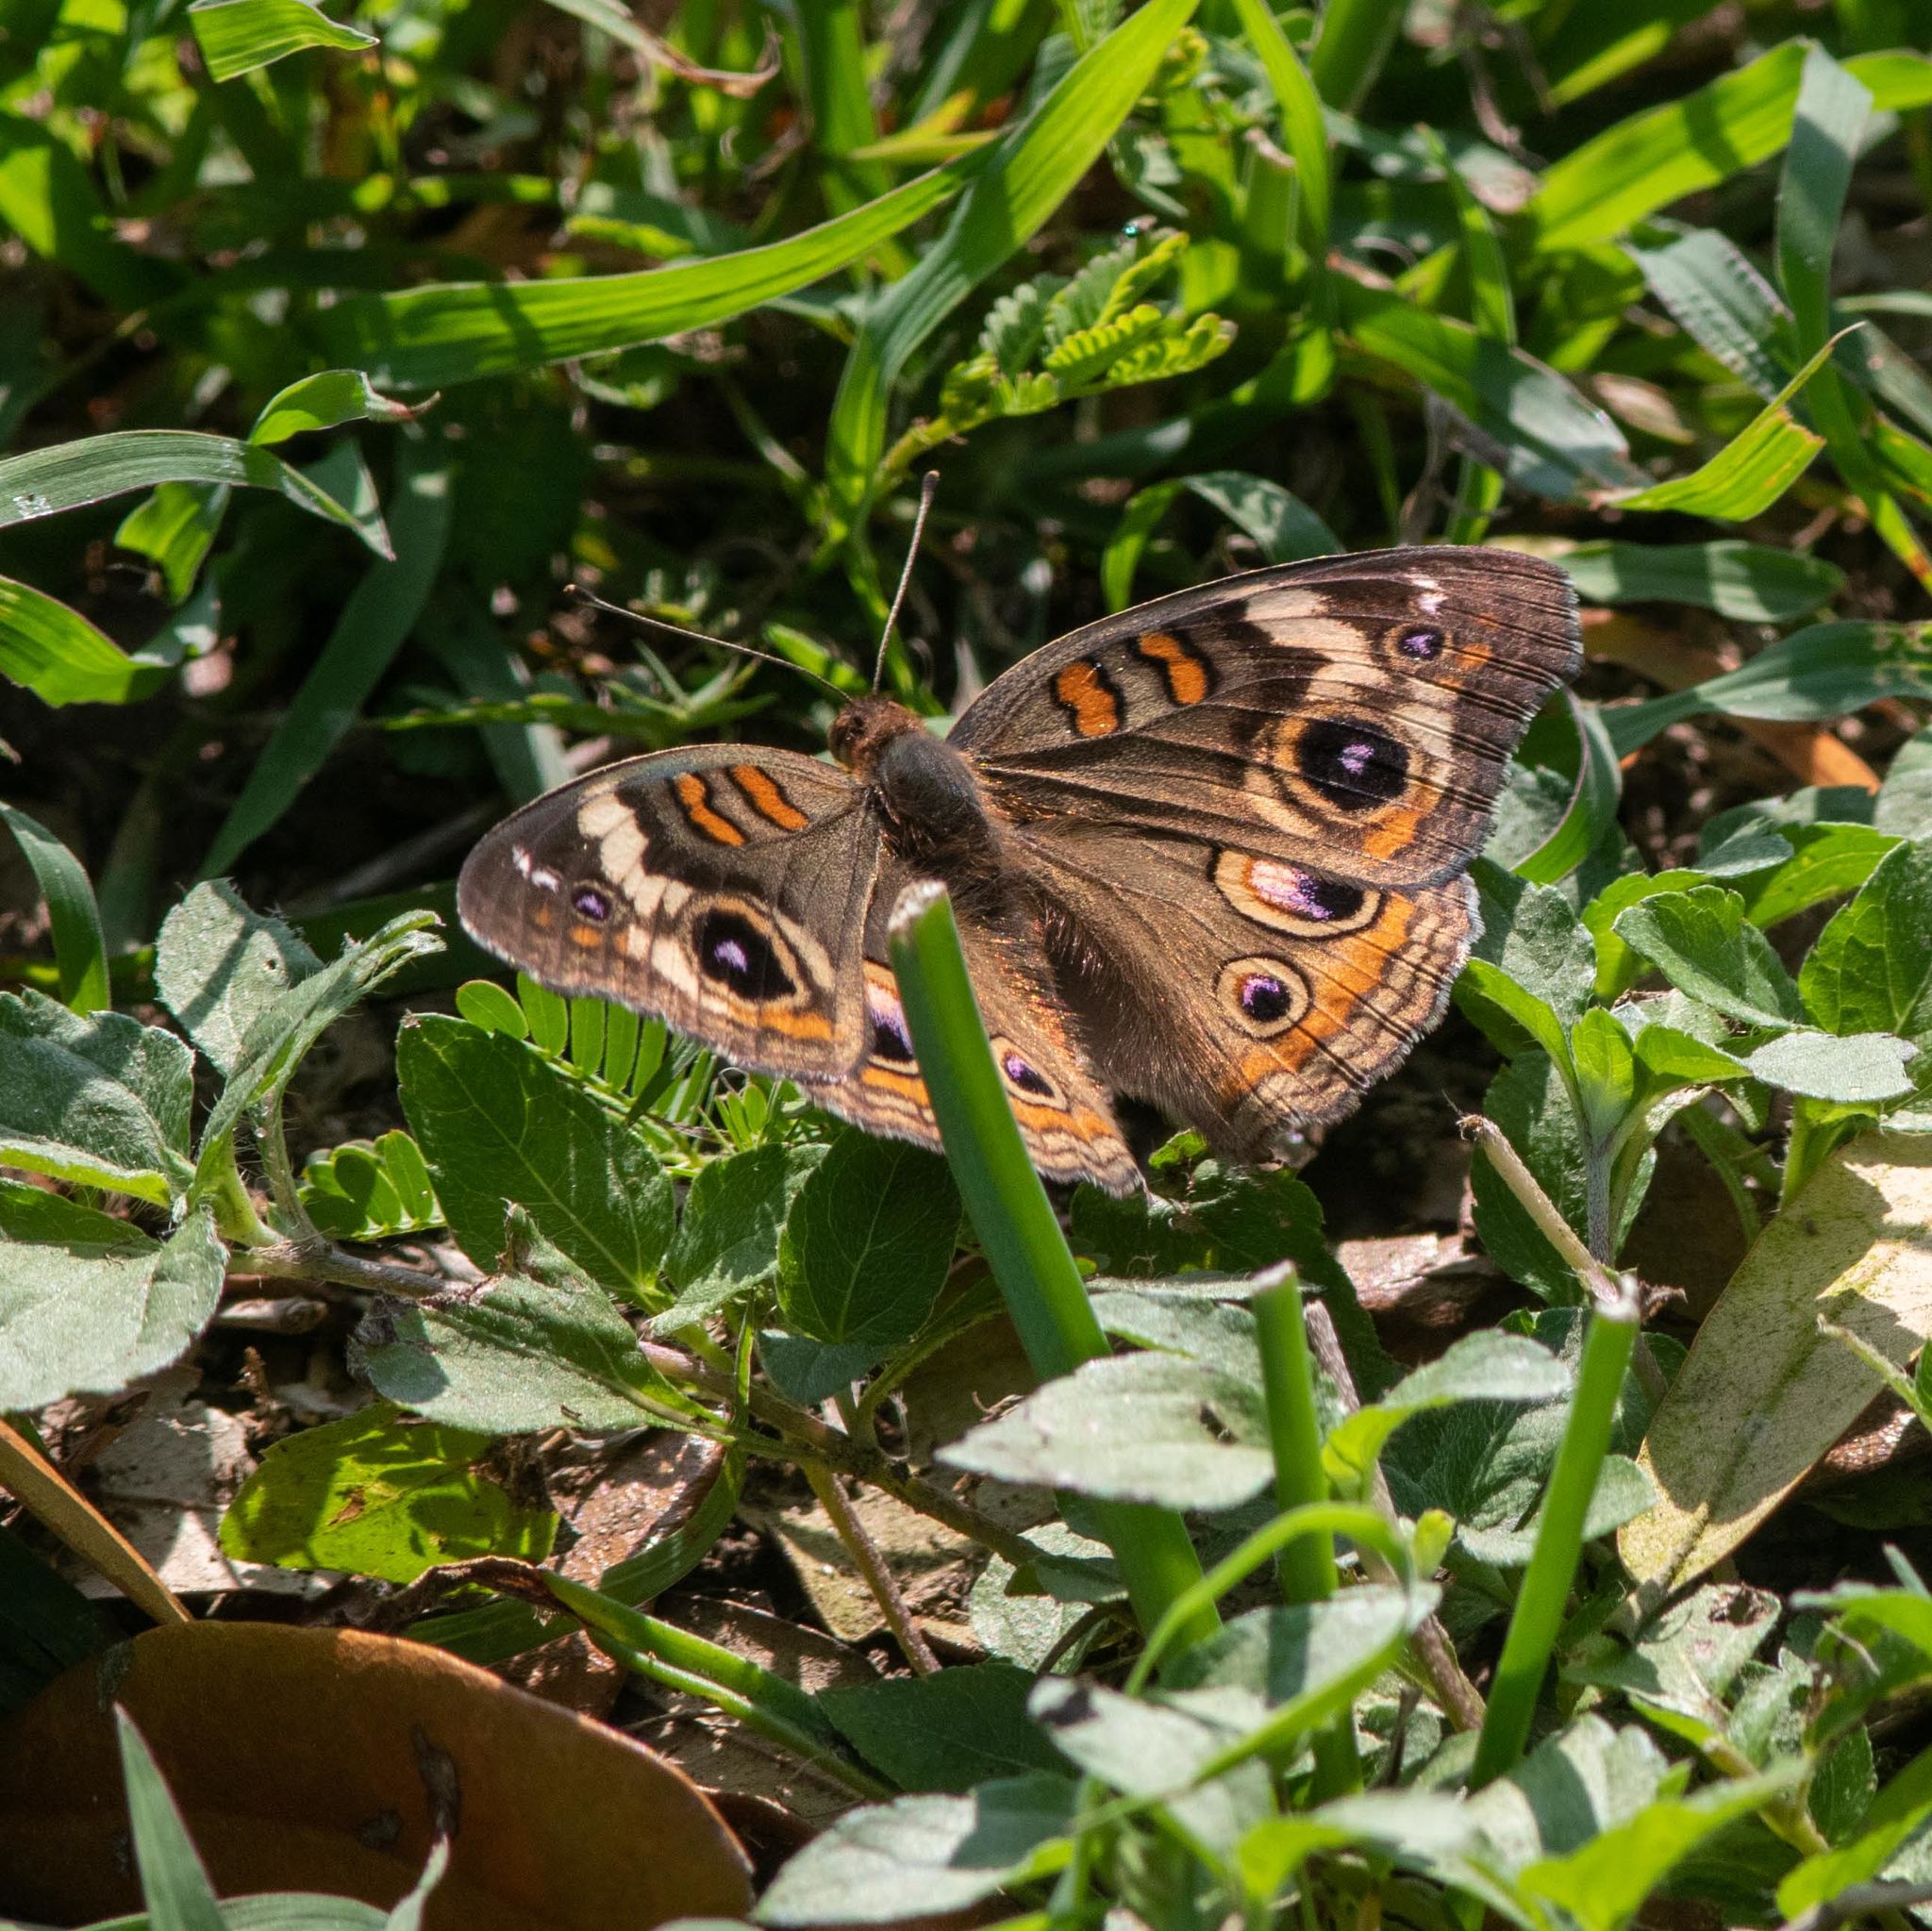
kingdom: Animalia
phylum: Arthropoda
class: Insecta
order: Lepidoptera
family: Nymphalidae
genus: Junonia
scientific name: Junonia coenia
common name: Common buckeye
